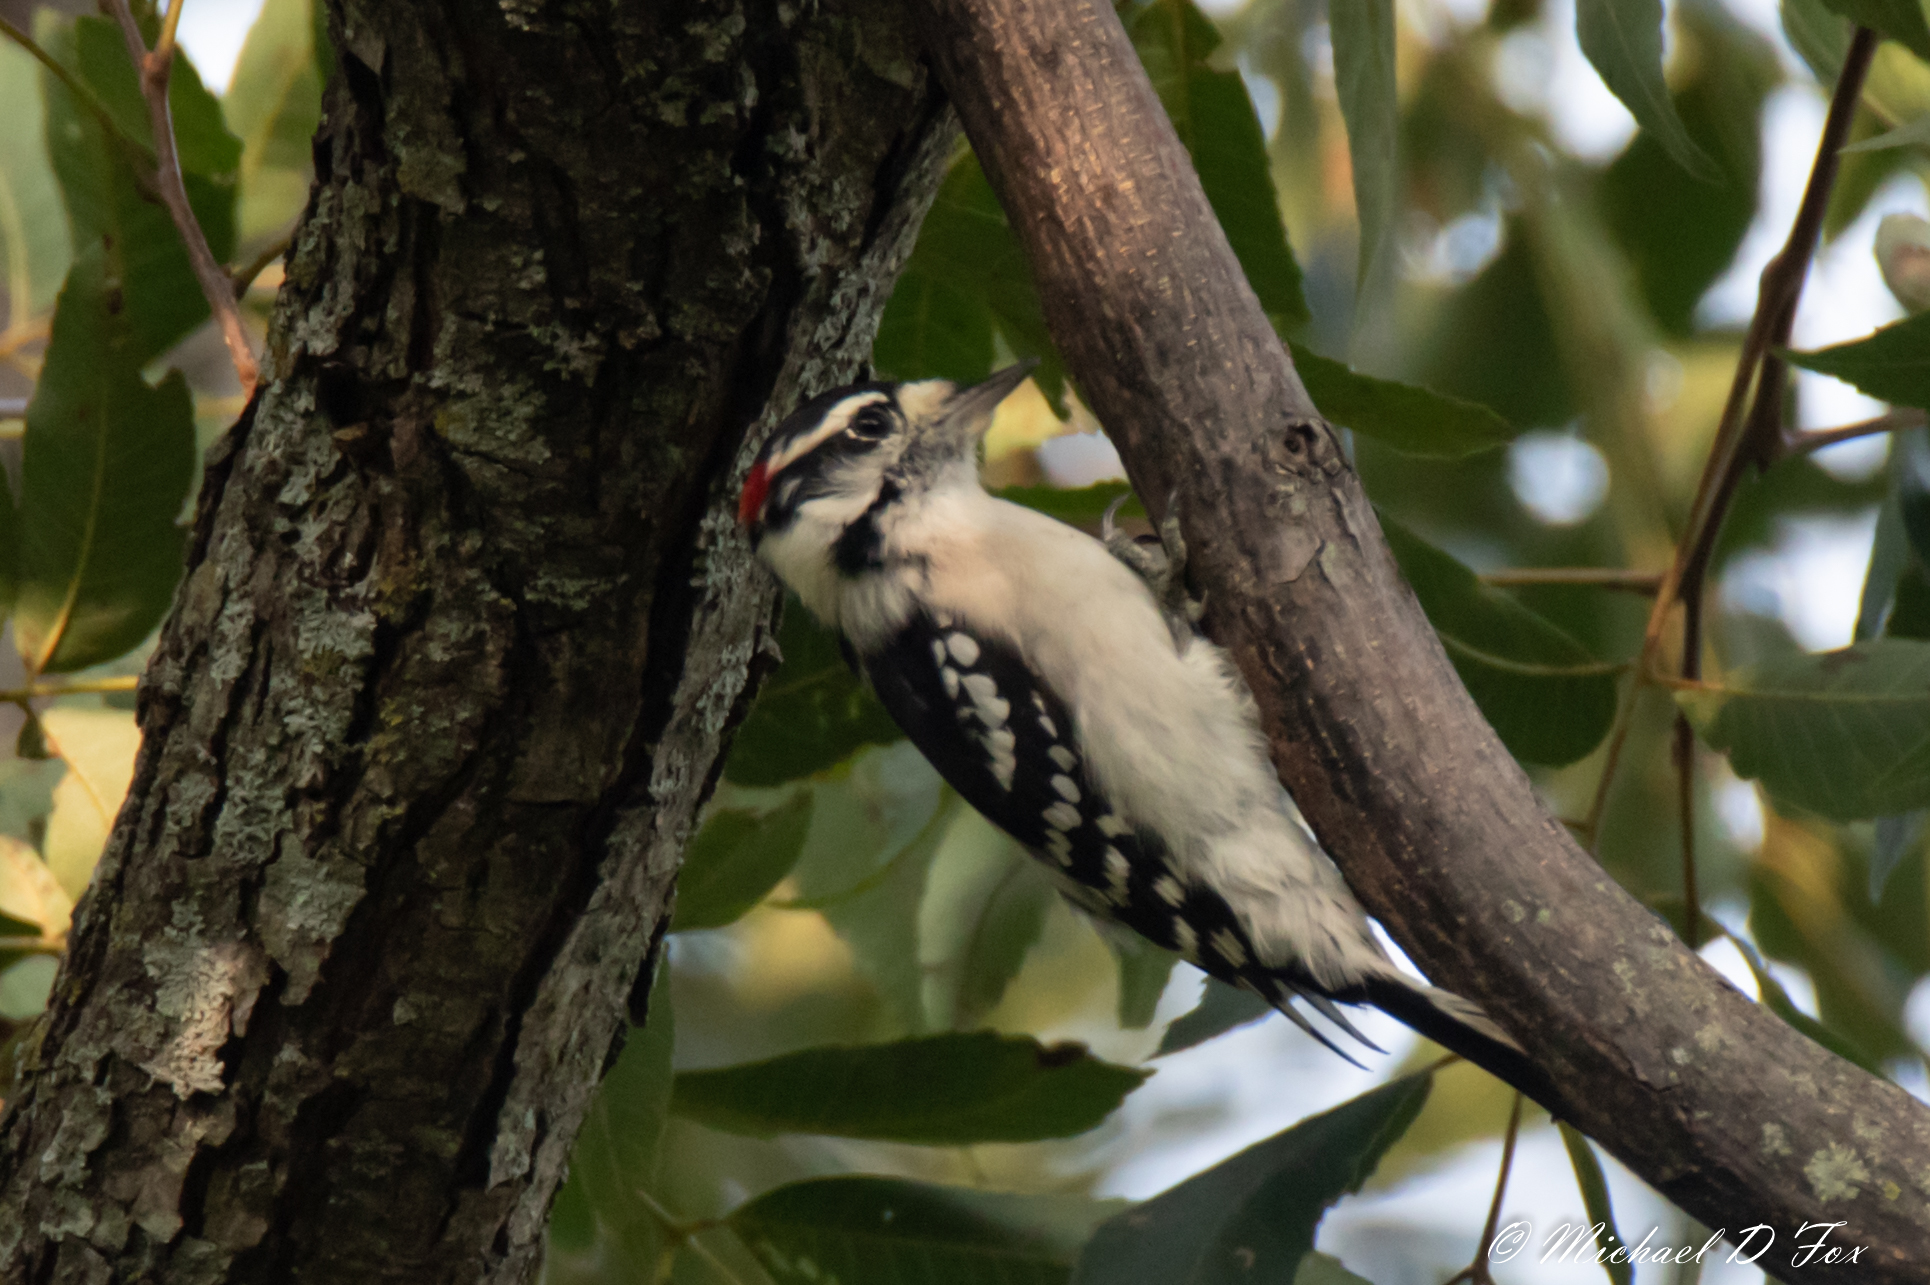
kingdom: Animalia
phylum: Chordata
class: Aves
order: Piciformes
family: Picidae
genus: Dryobates
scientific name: Dryobates pubescens
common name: Downy woodpecker
